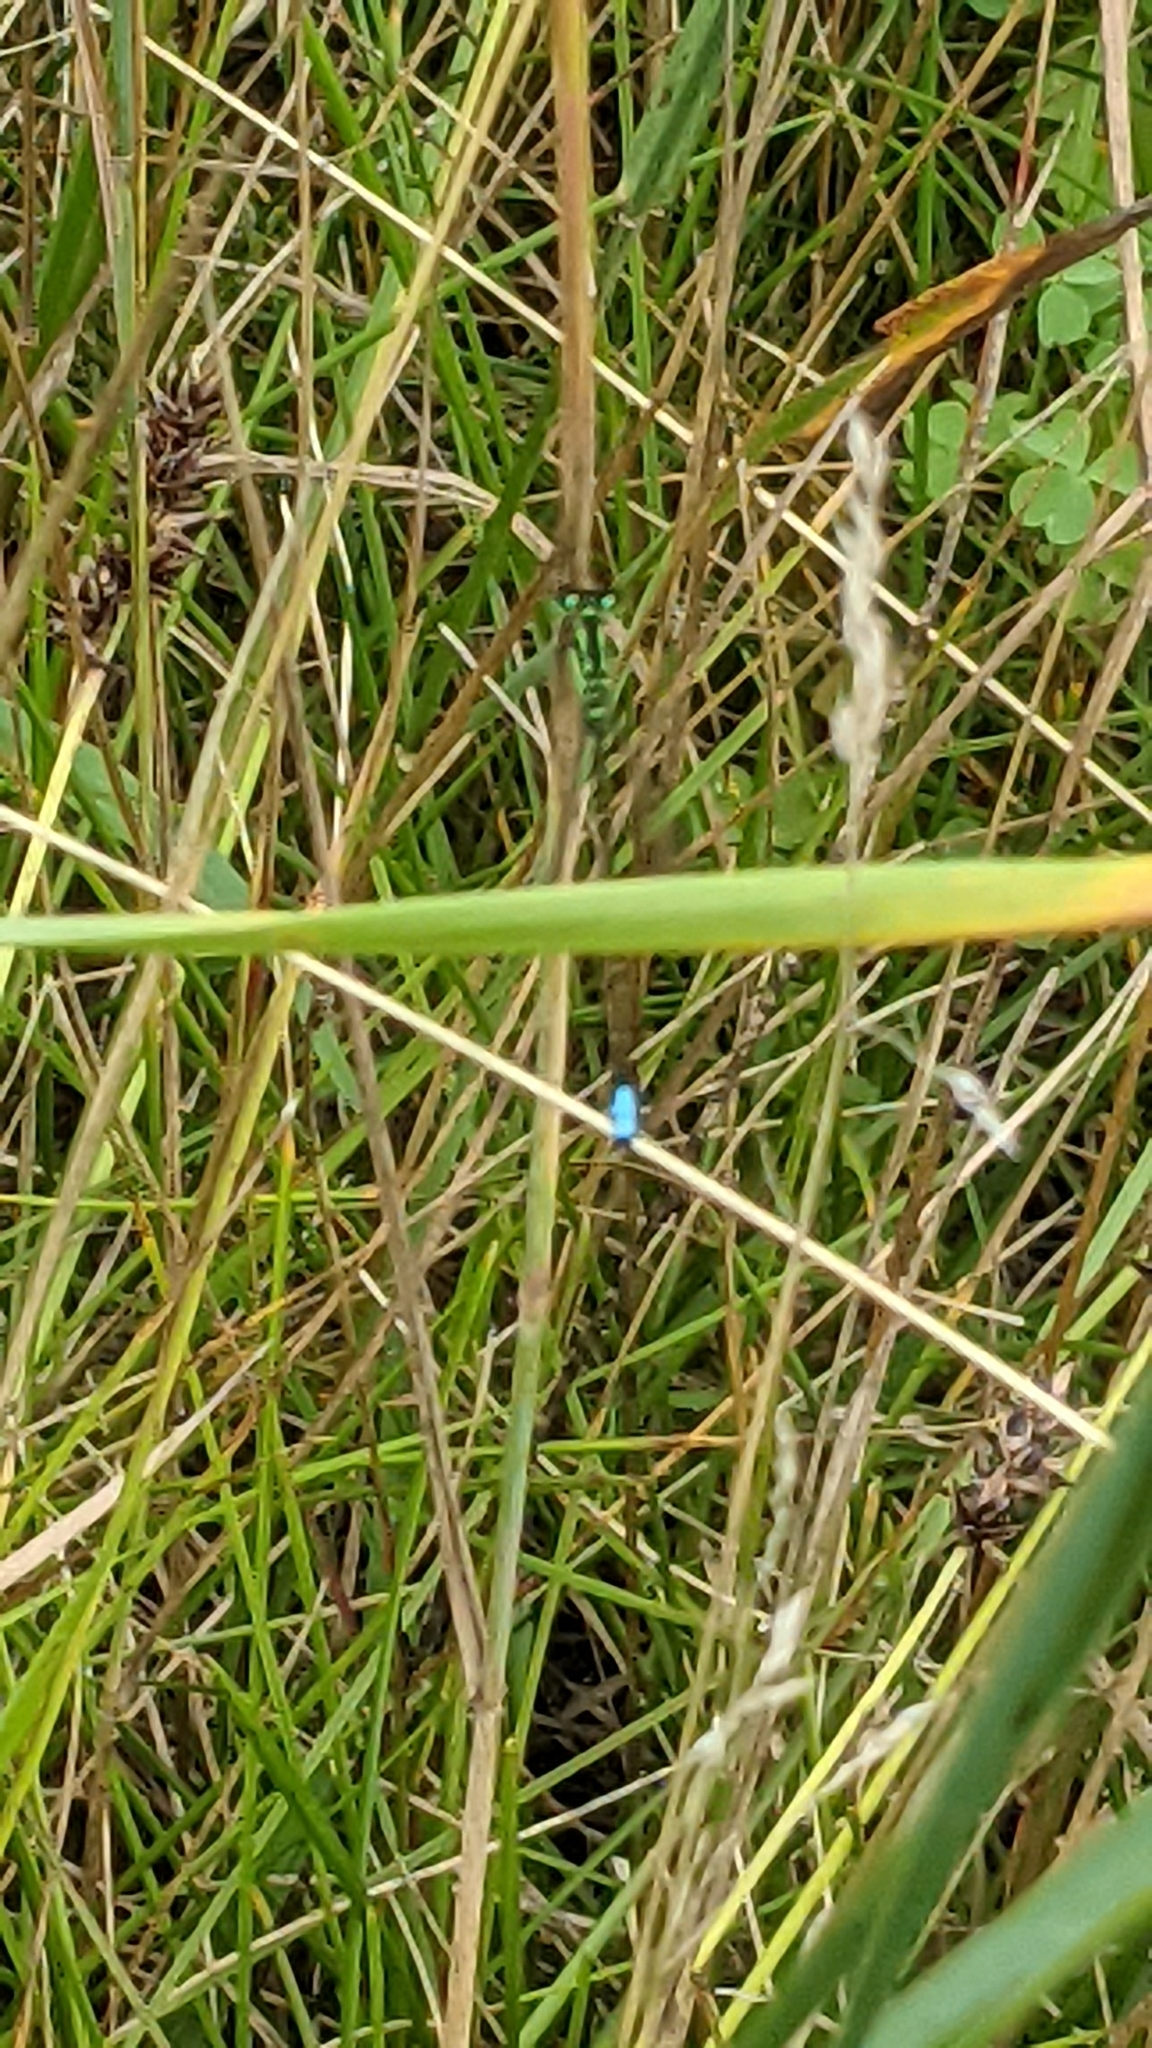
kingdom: Animalia
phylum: Arthropoda
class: Insecta
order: Odonata
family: Coenagrionidae
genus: Ischnura
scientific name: Ischnura verticalis
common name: Eastern forktail
